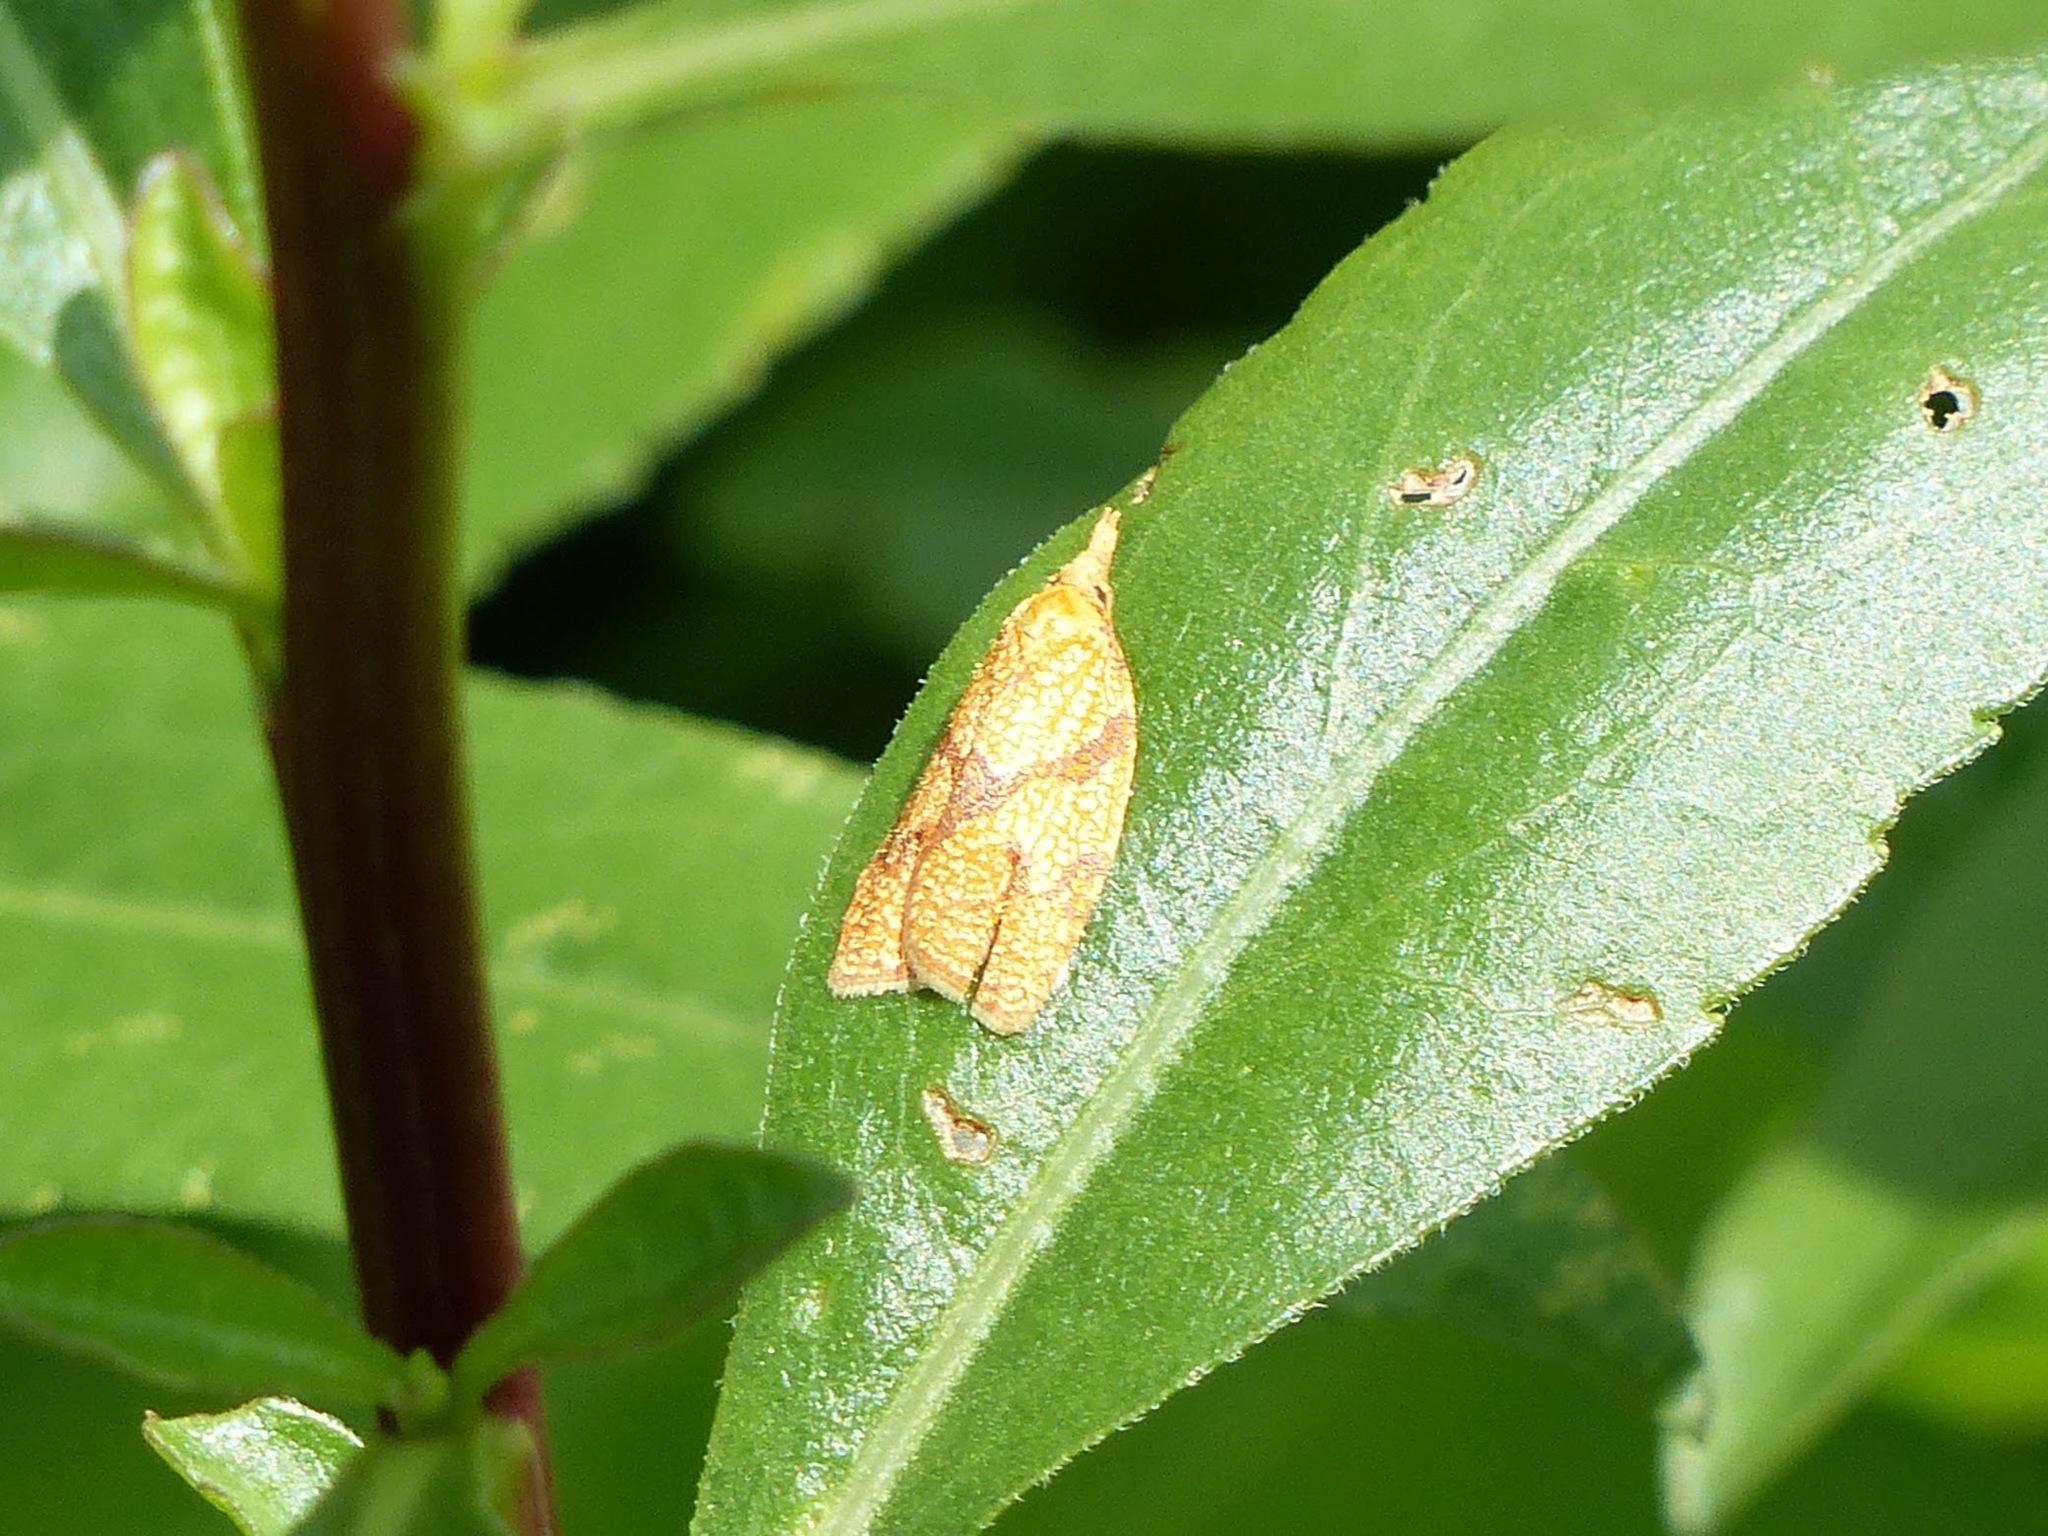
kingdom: Animalia
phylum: Arthropoda
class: Insecta
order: Lepidoptera
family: Tortricidae
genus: Cenopis
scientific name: Cenopis reticulatana
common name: Reticulated fruitworm moth
